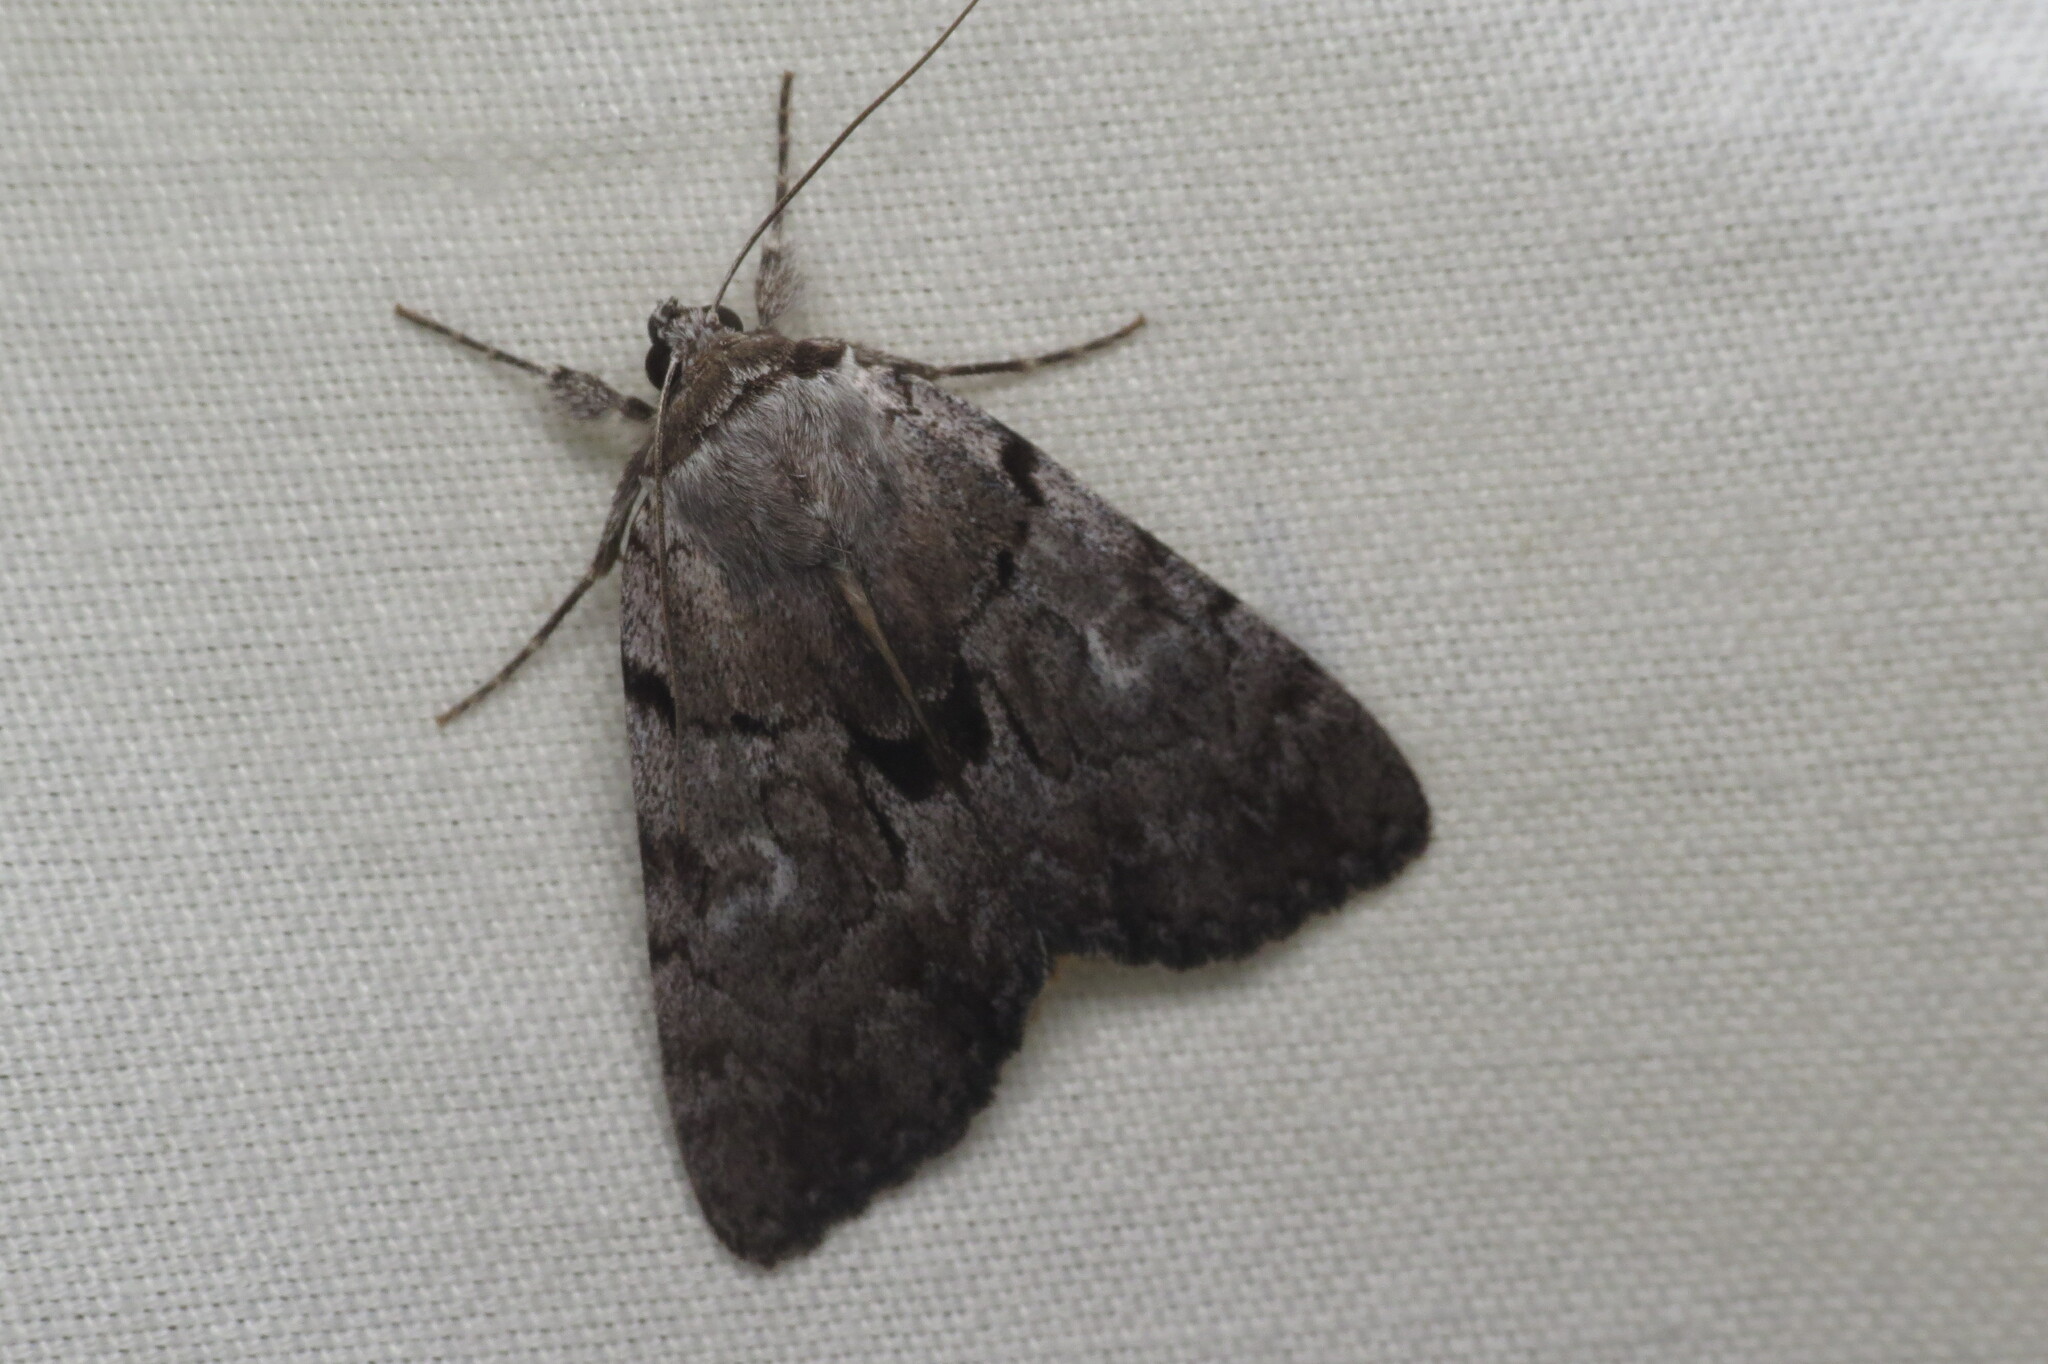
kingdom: Animalia
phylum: Arthropoda
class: Insecta
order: Lepidoptera
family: Erebidae
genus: Catocala
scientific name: Catocala sordida
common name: Sordid underwing
